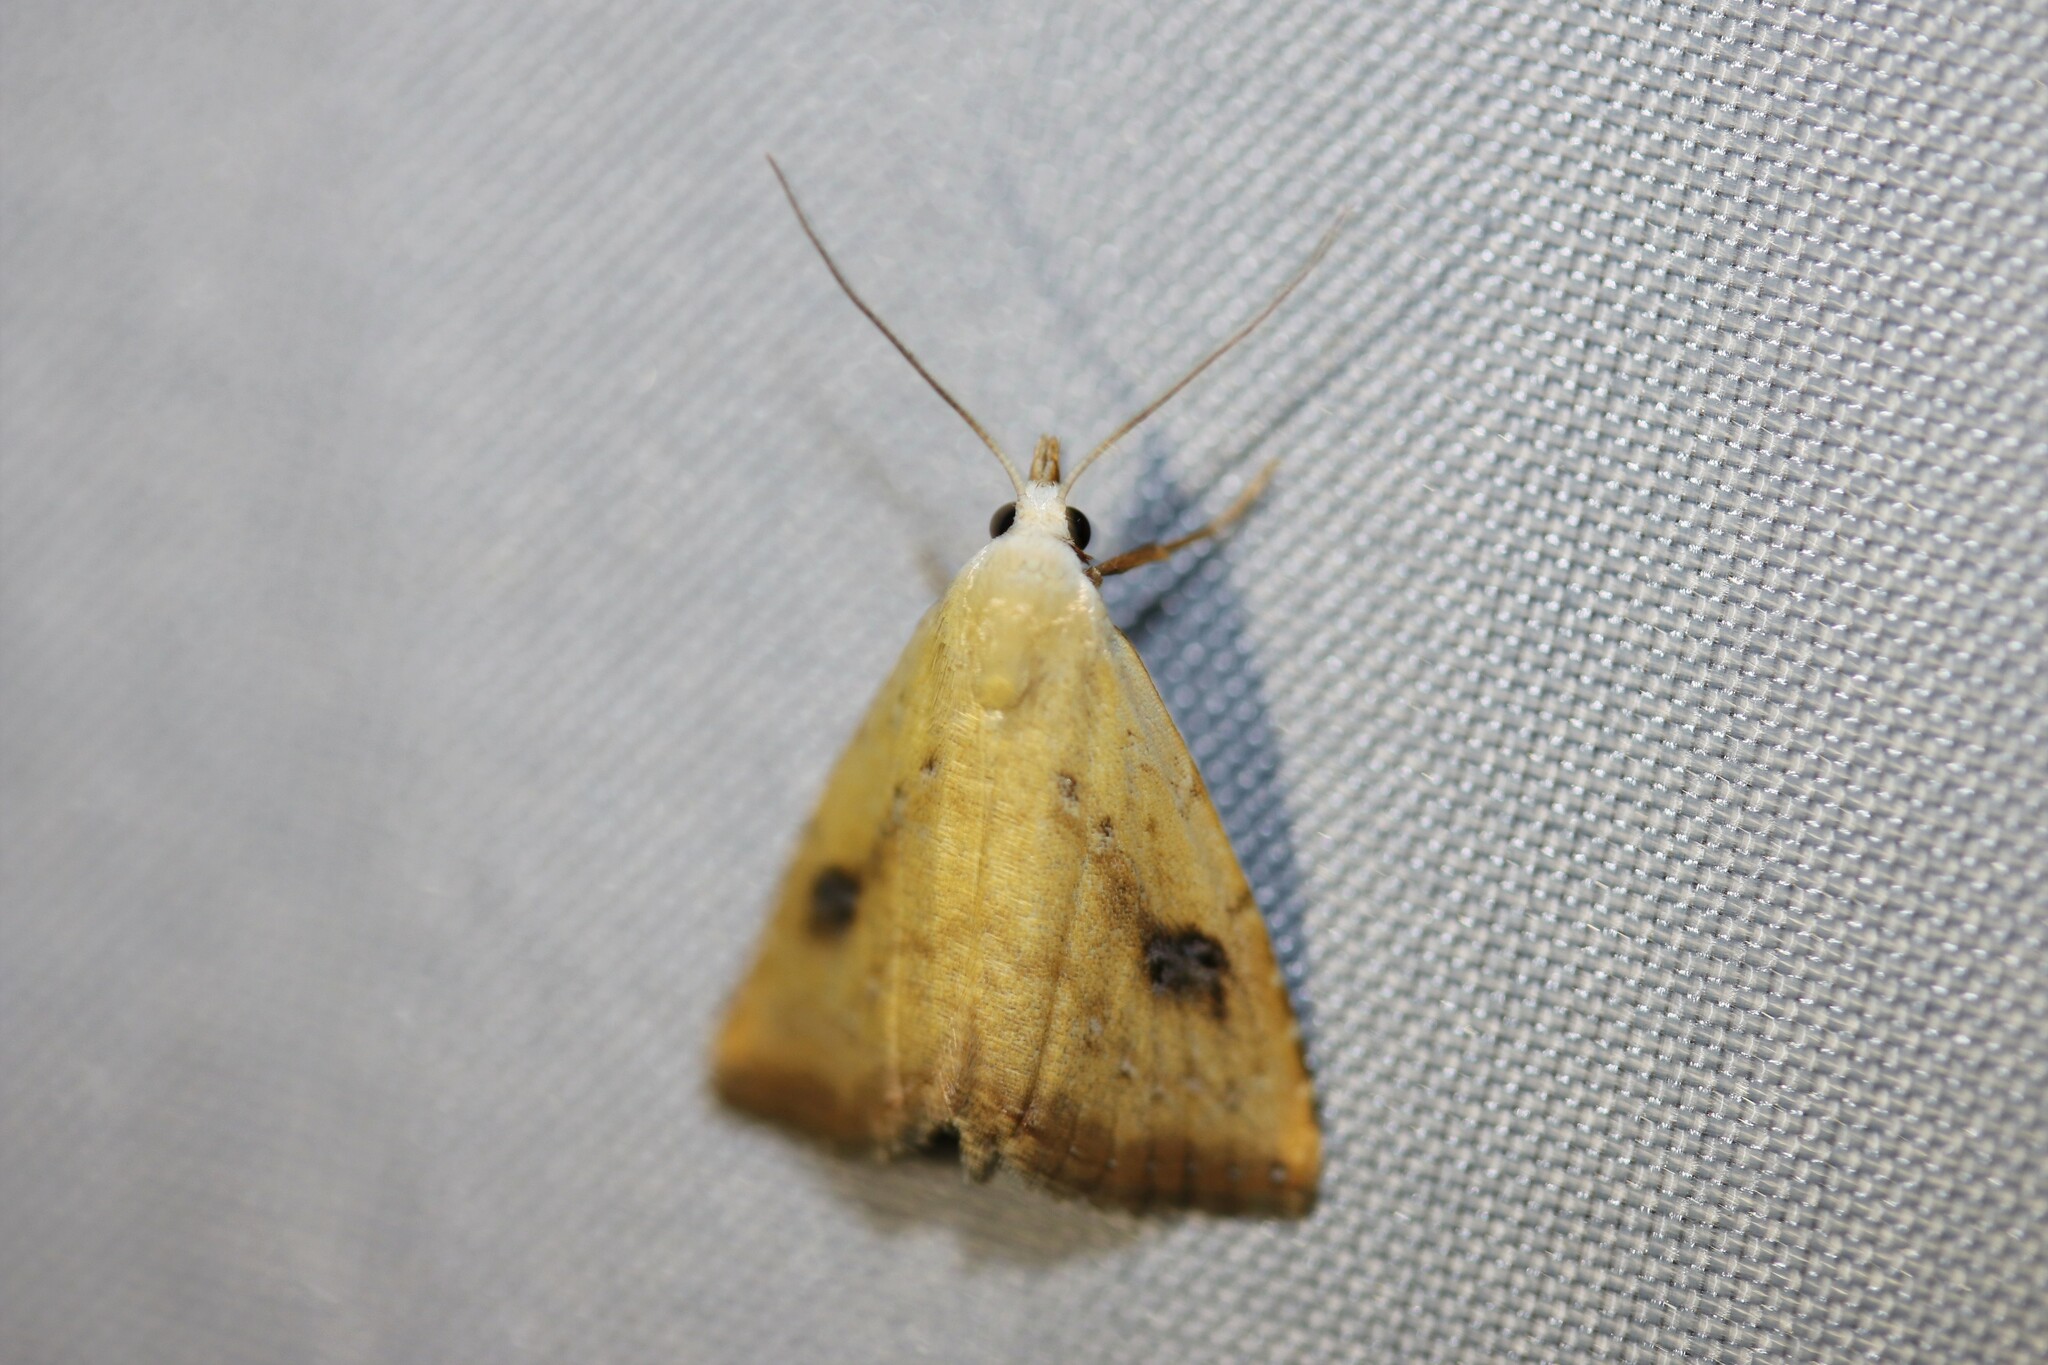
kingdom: Animalia
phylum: Arthropoda
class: Insecta
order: Lepidoptera
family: Erebidae
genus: Rivula
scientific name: Rivula sericealis
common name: Straw dot
